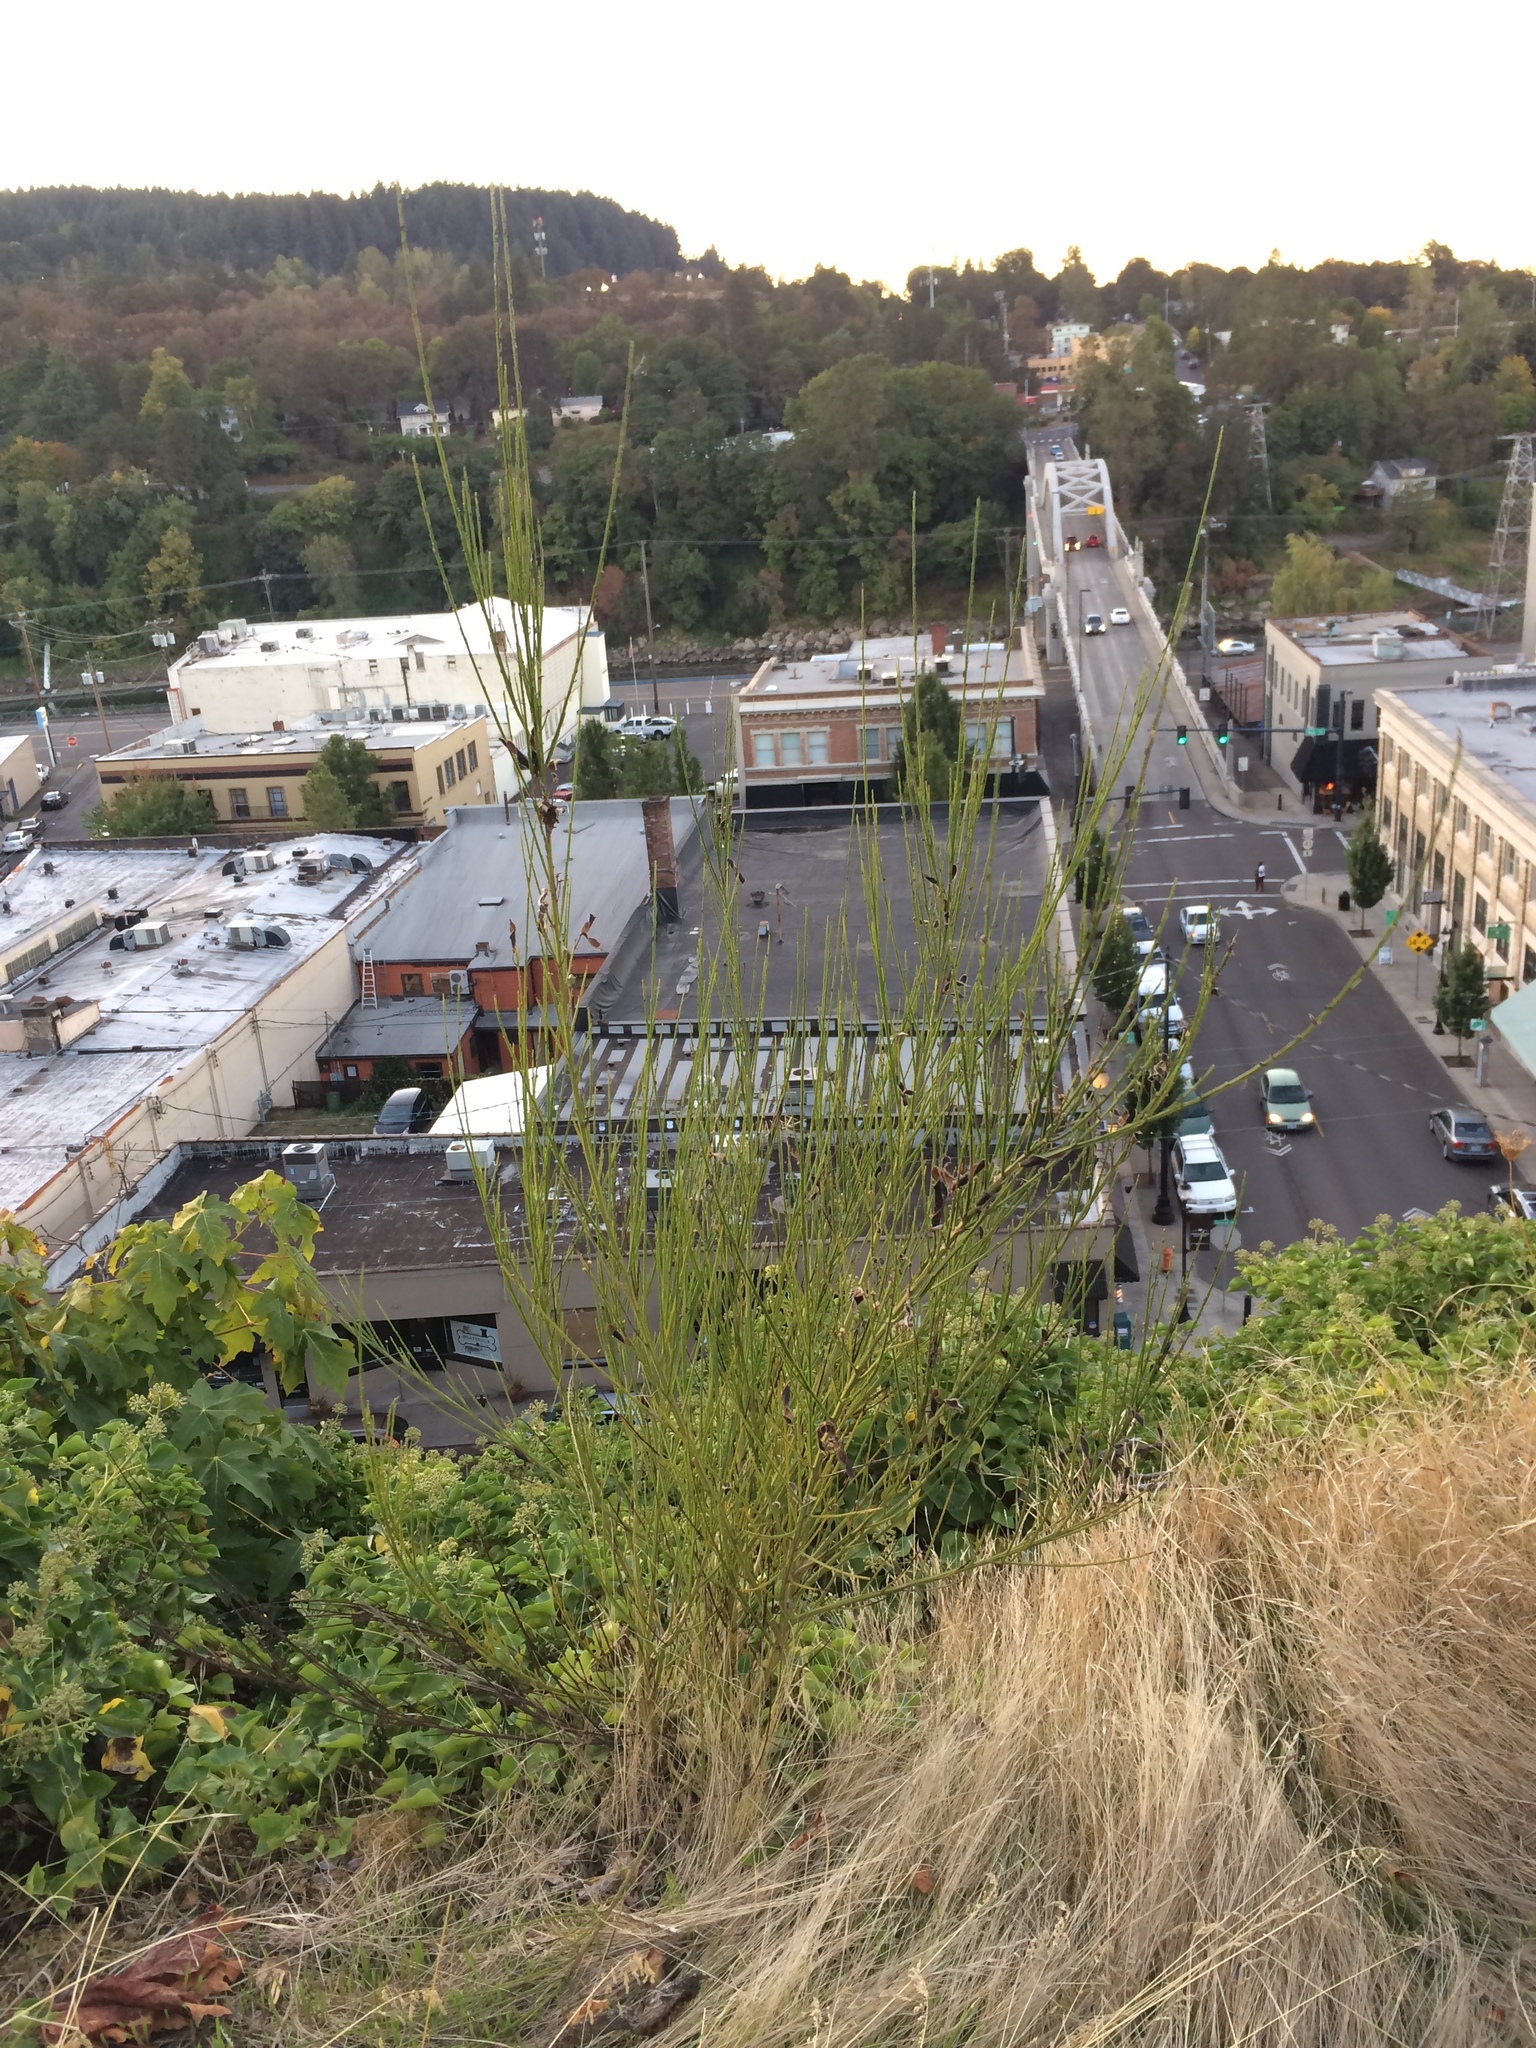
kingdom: Plantae
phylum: Tracheophyta
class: Magnoliopsida
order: Fabales
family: Fabaceae
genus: Cytisus
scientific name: Cytisus scoparius
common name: Scotch broom
